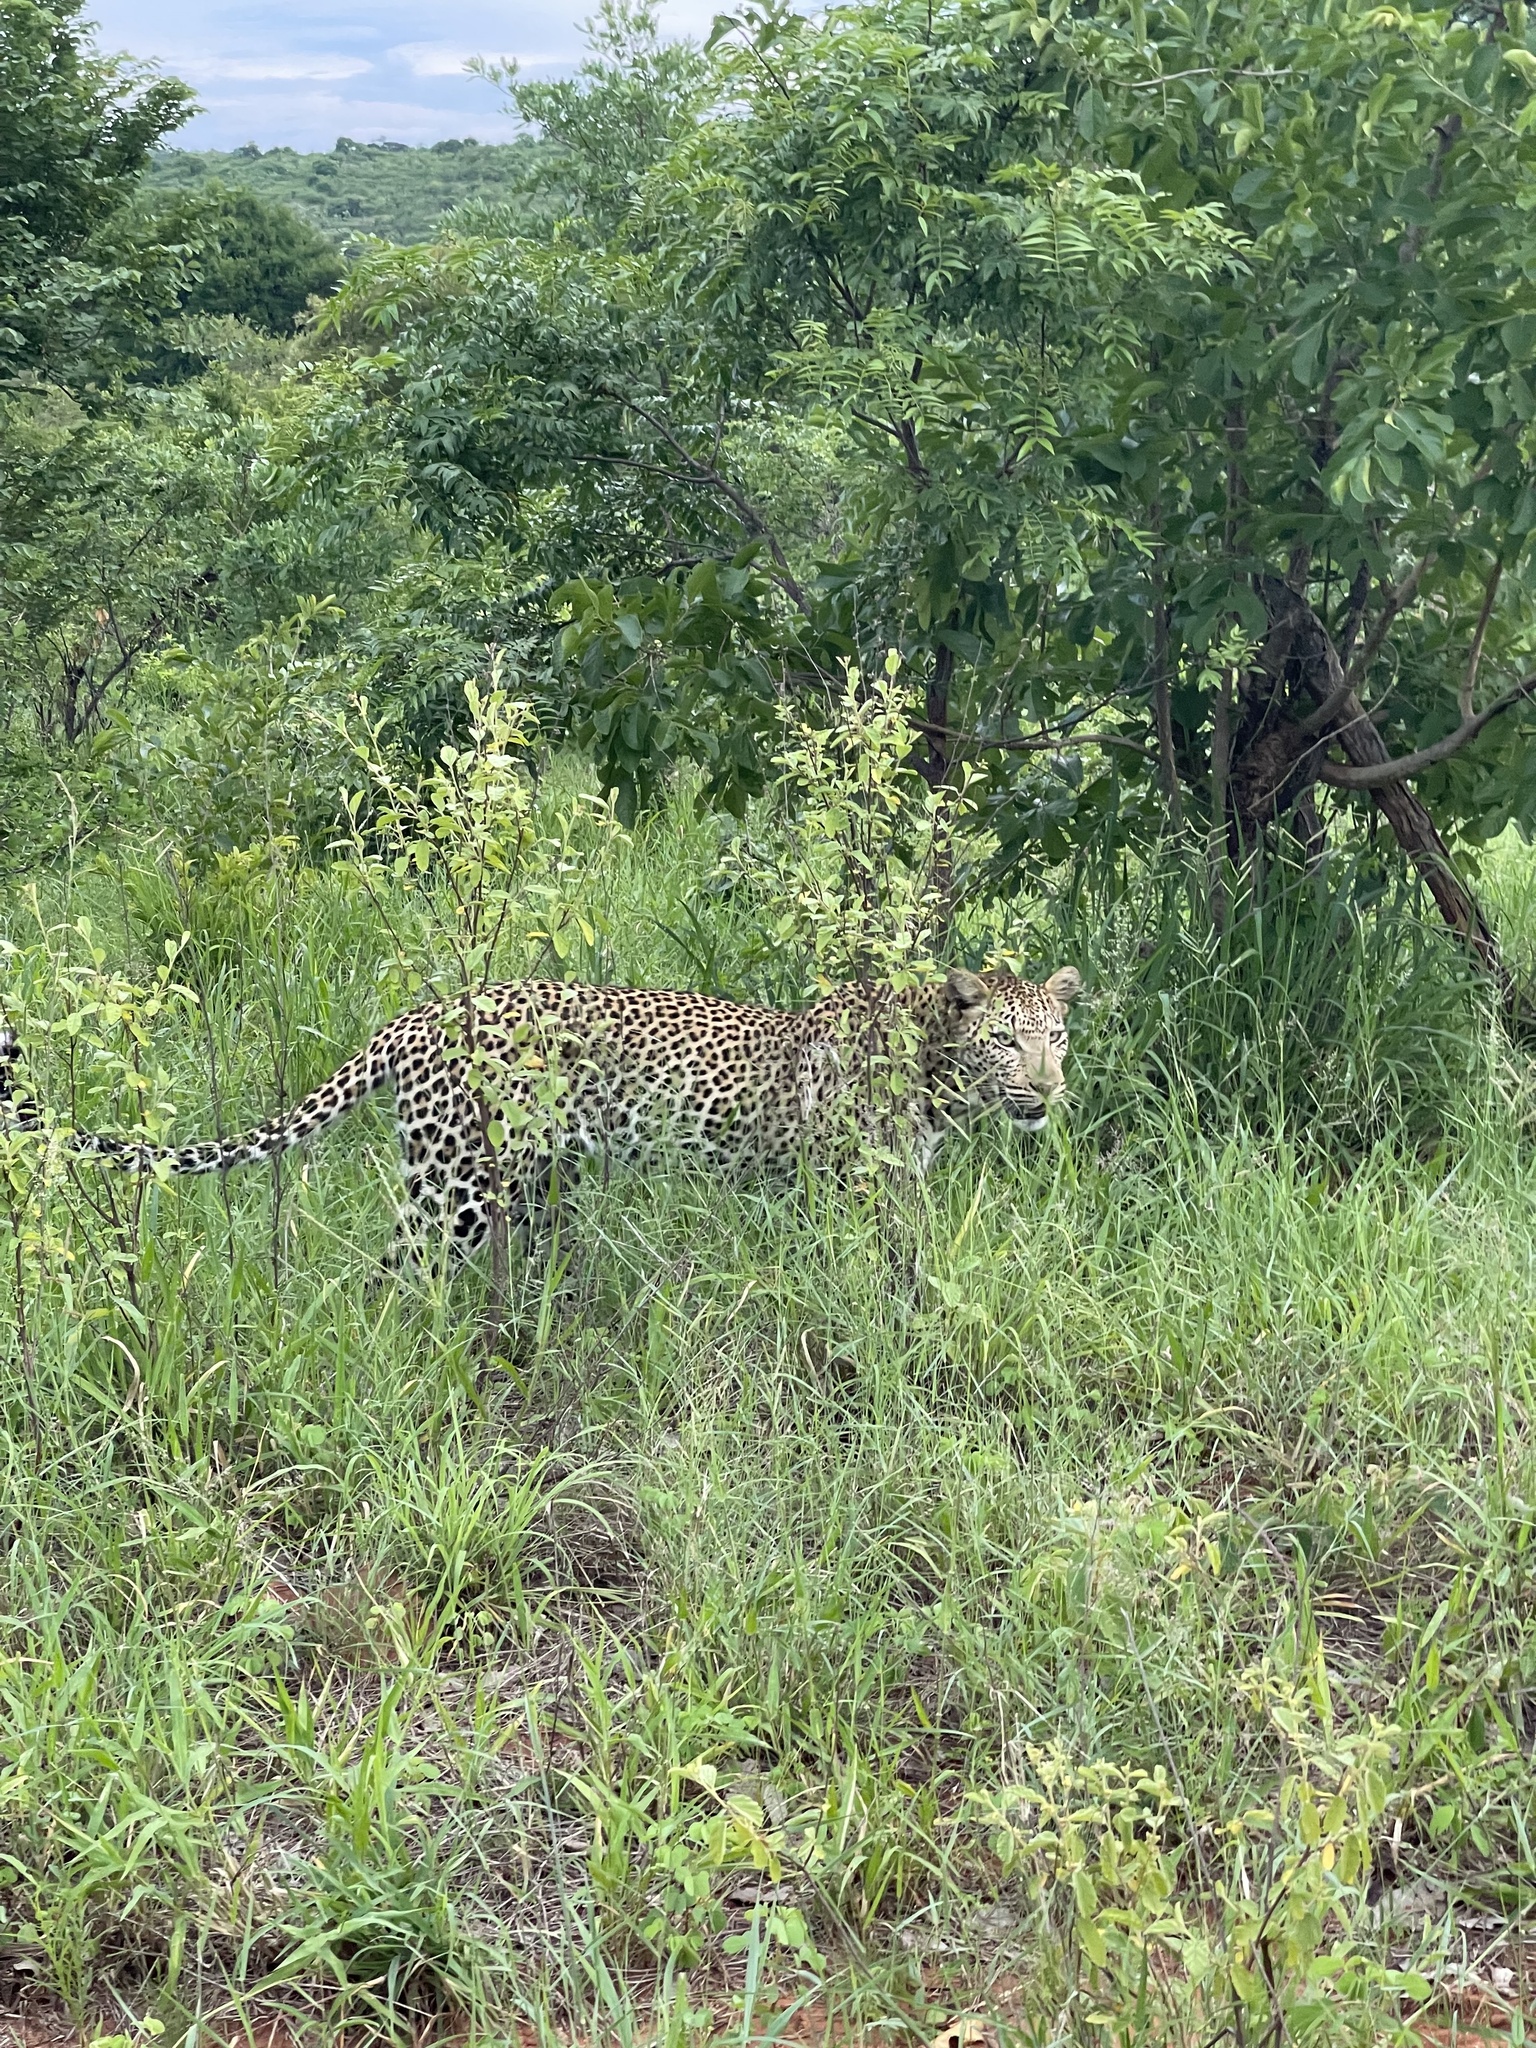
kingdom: Animalia
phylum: Chordata
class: Mammalia
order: Carnivora
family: Felidae
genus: Panthera
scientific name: Panthera pardus
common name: Leopard
